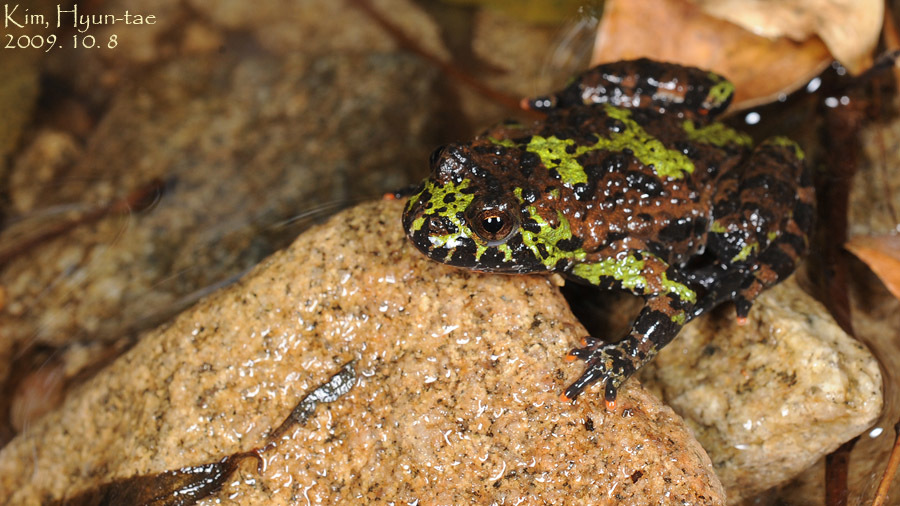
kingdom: Animalia
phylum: Chordata
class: Amphibia
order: Anura
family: Bombinatoridae
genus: Bombina
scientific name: Bombina orientalis
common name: Oriental firebelly toad
